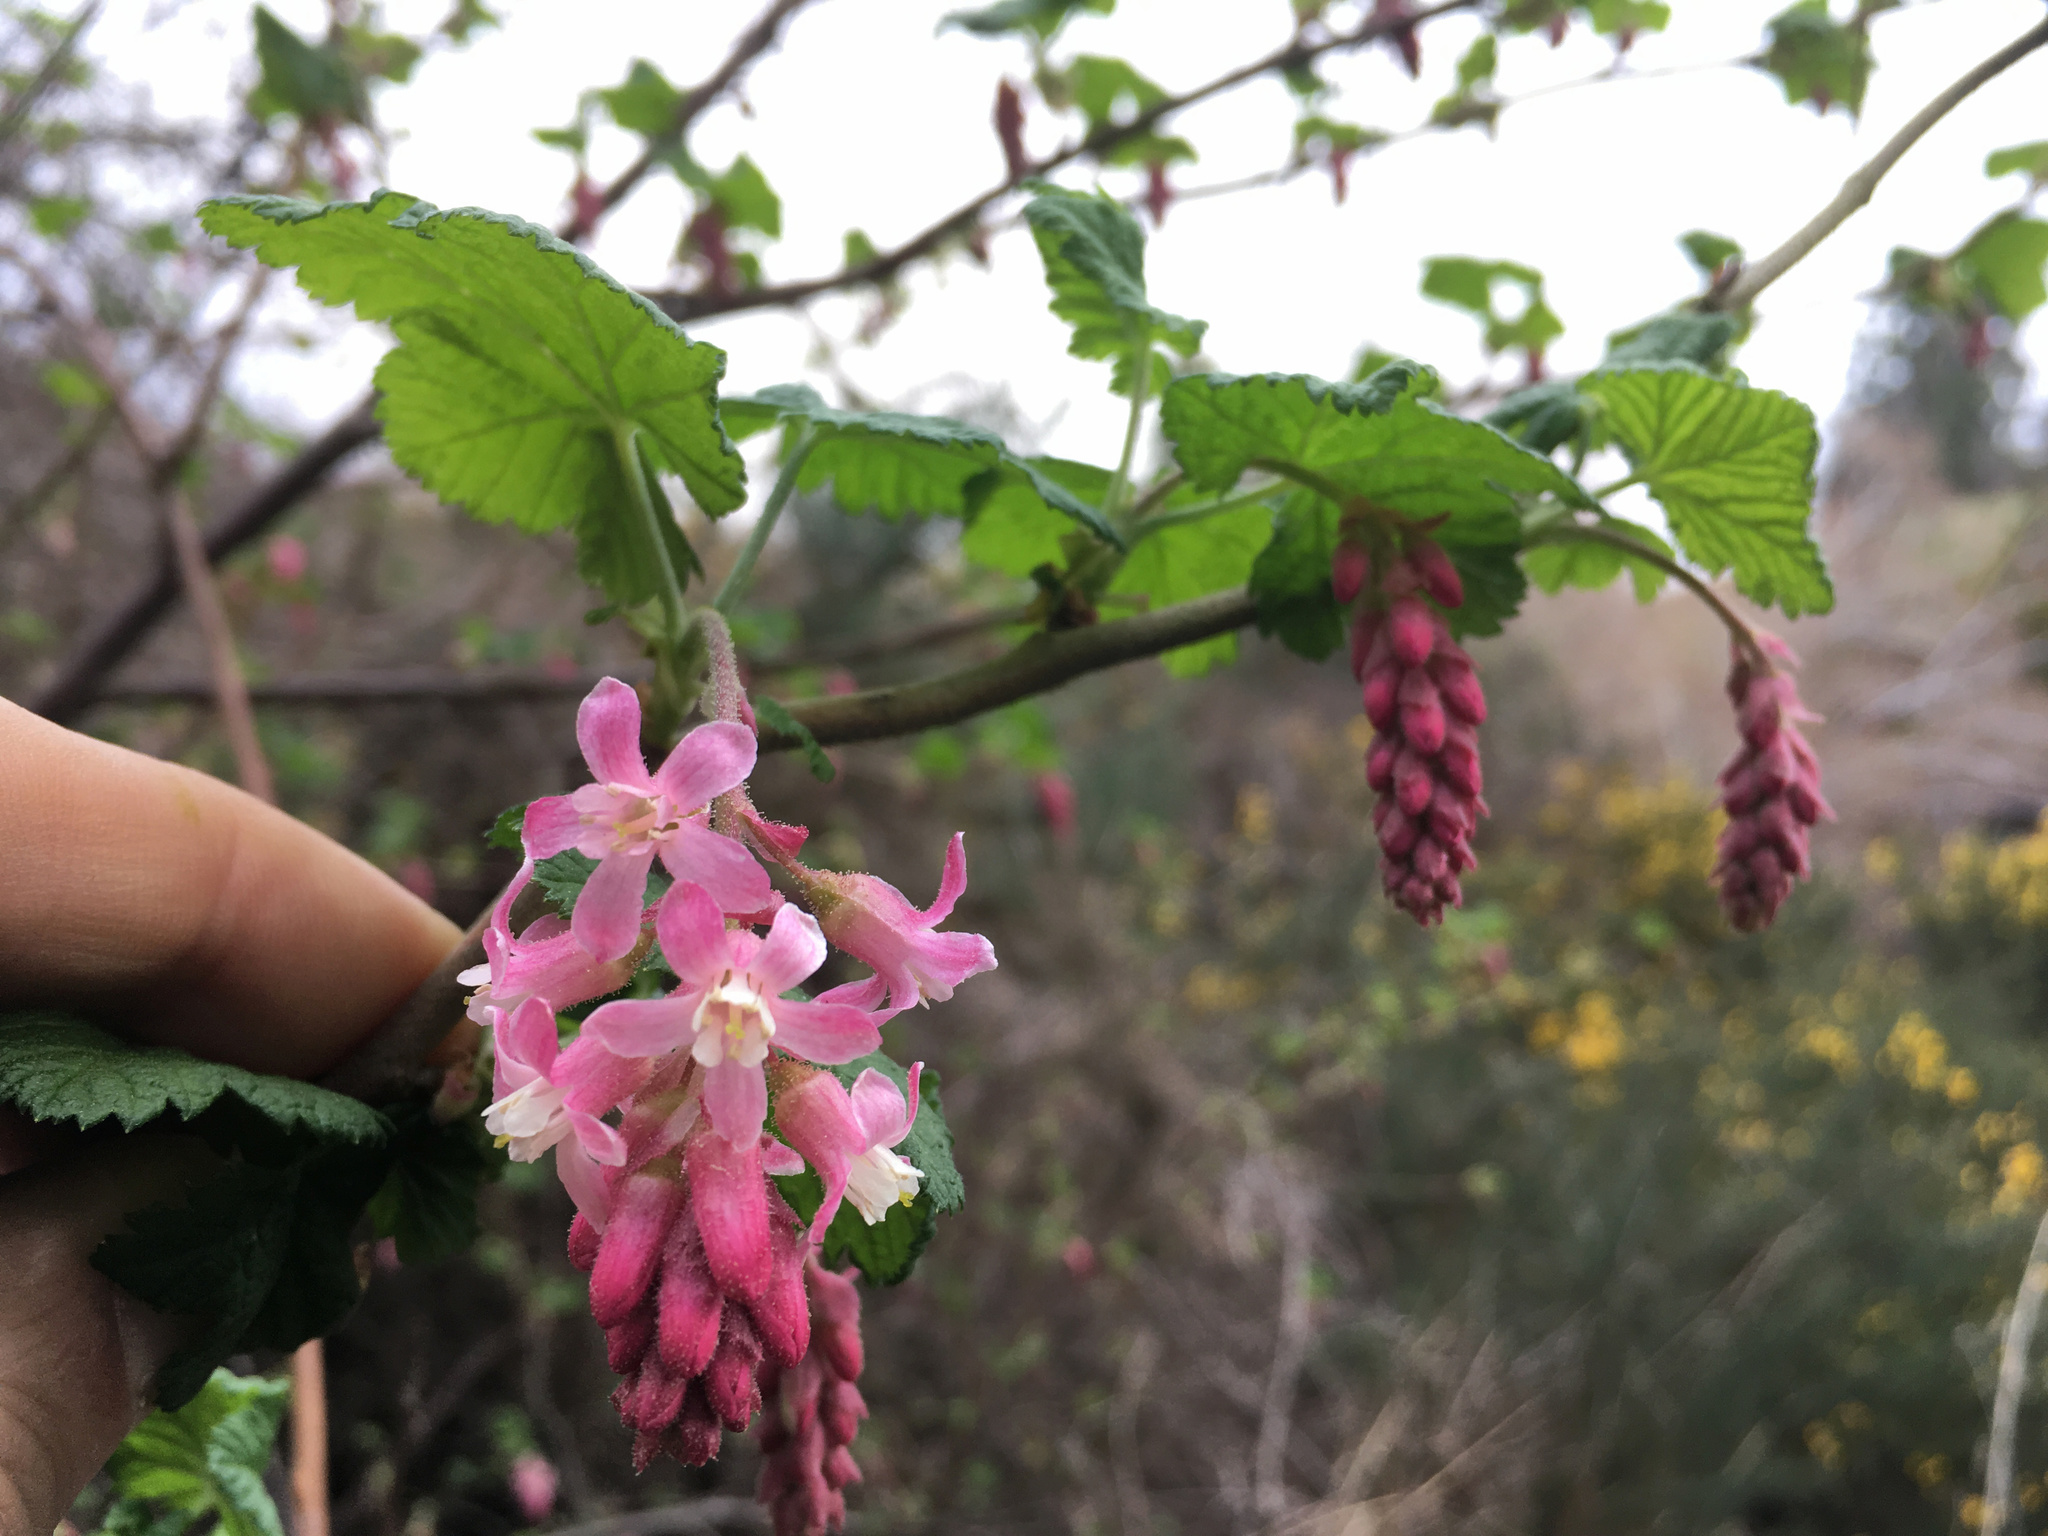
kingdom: Plantae
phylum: Tracheophyta
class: Magnoliopsida
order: Saxifragales
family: Grossulariaceae
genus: Ribes
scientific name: Ribes sanguineum
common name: Flowering currant
